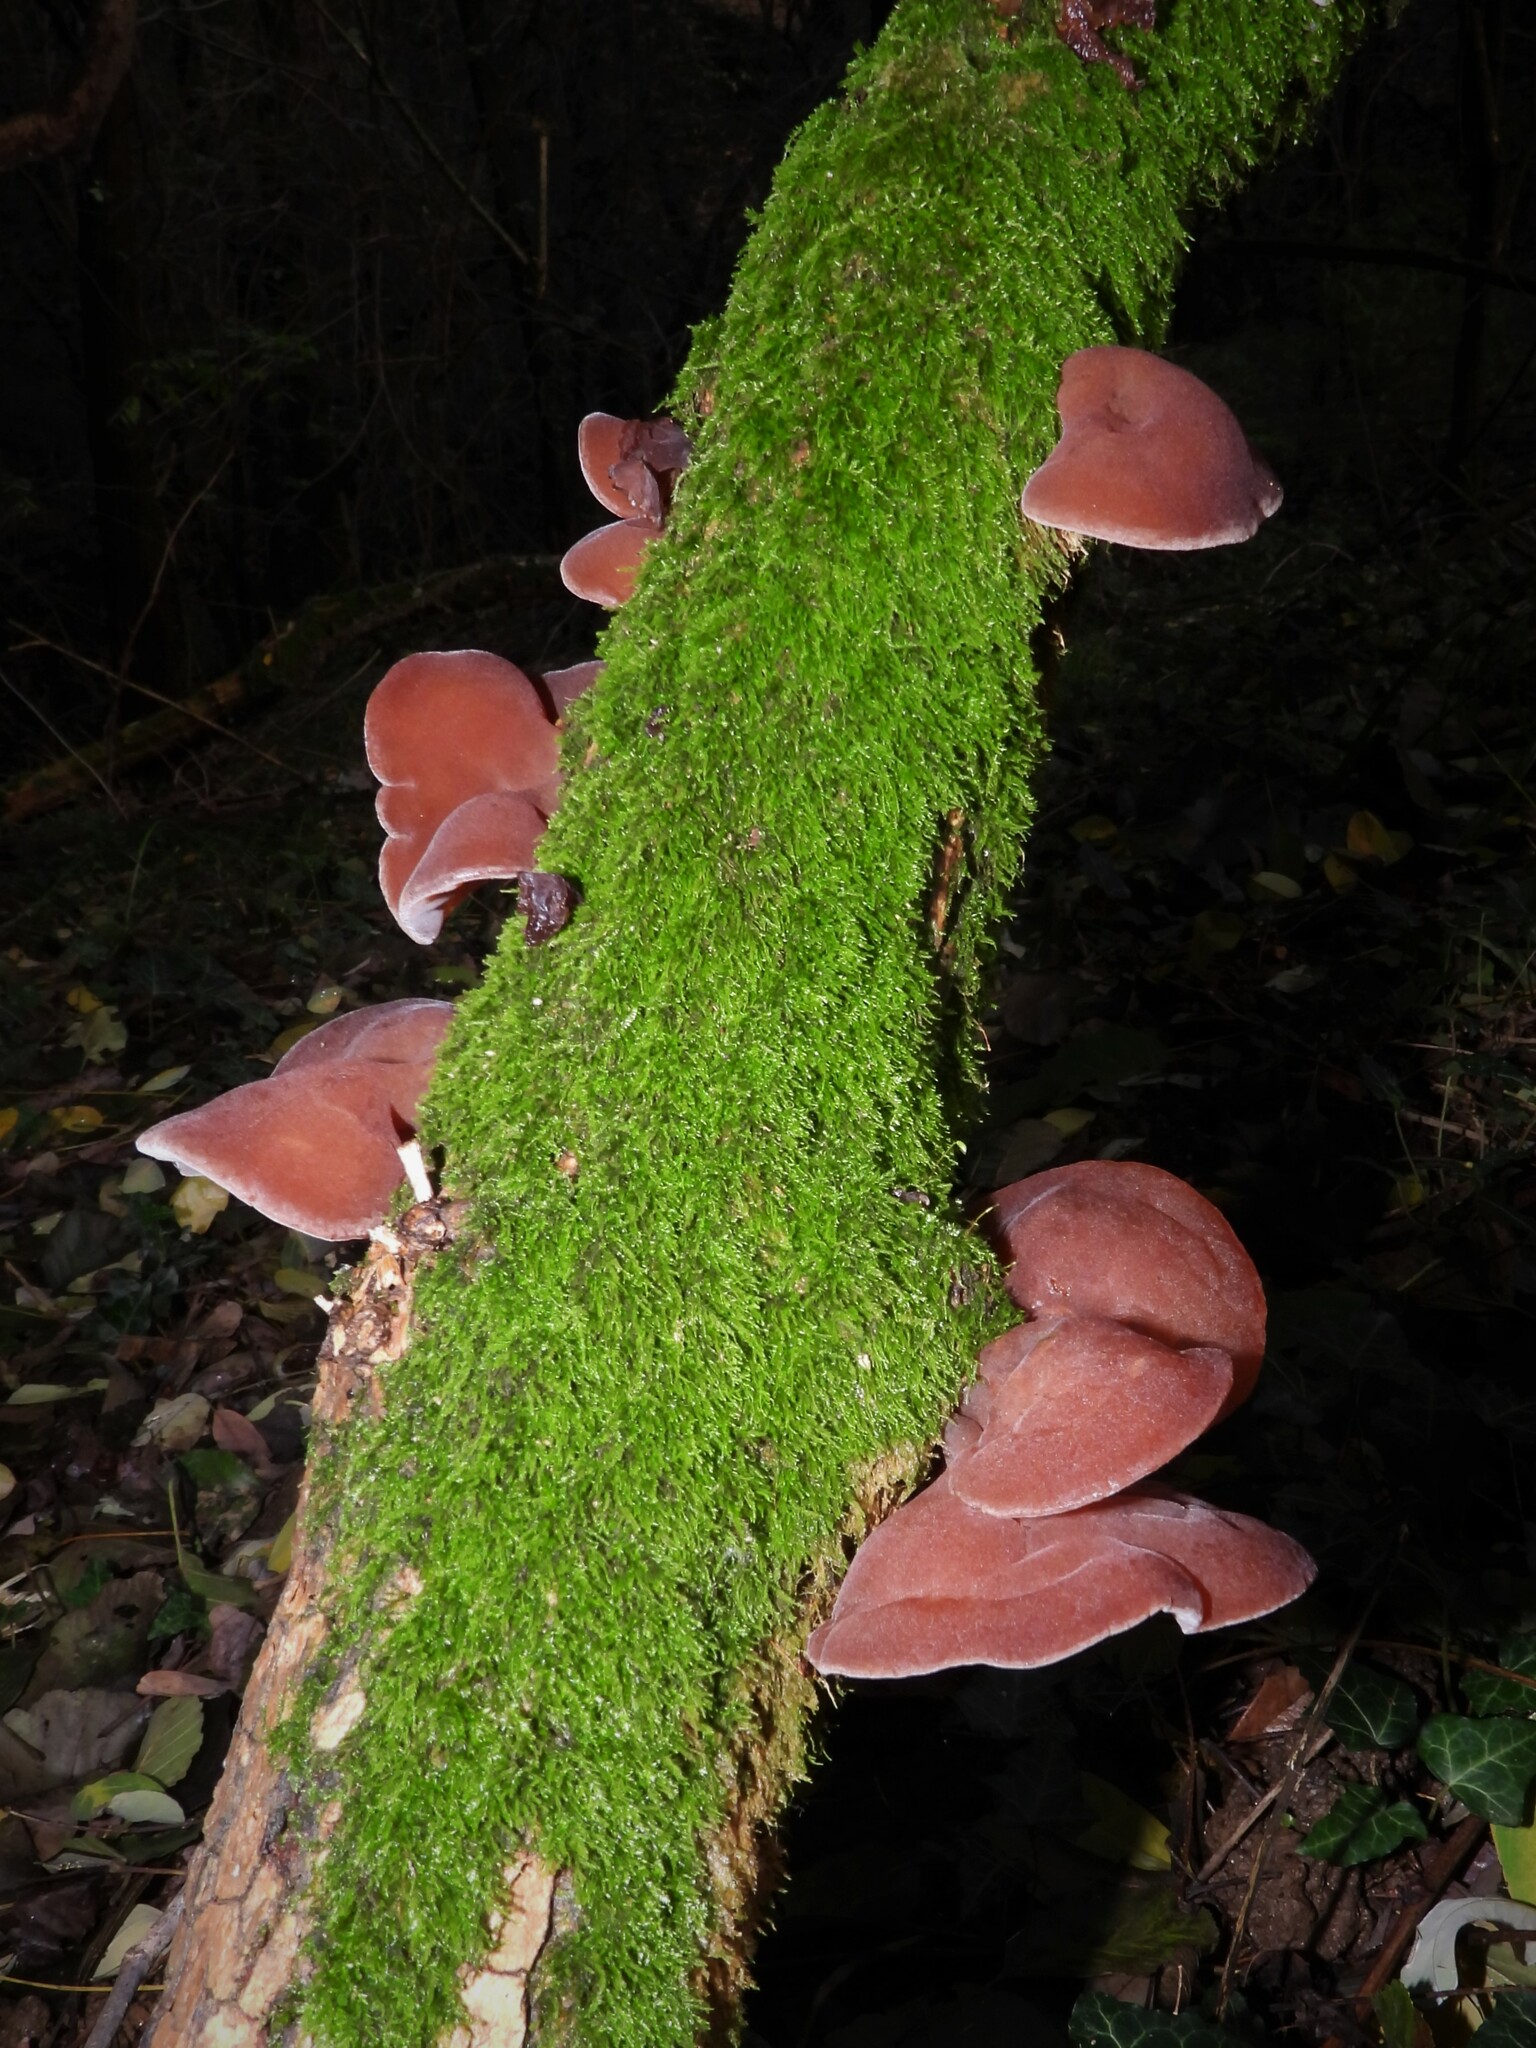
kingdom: Fungi
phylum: Basidiomycota
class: Agaricomycetes
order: Auriculariales
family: Auriculariaceae
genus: Auricularia
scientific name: Auricularia auricula-judae
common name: Jelly ear
